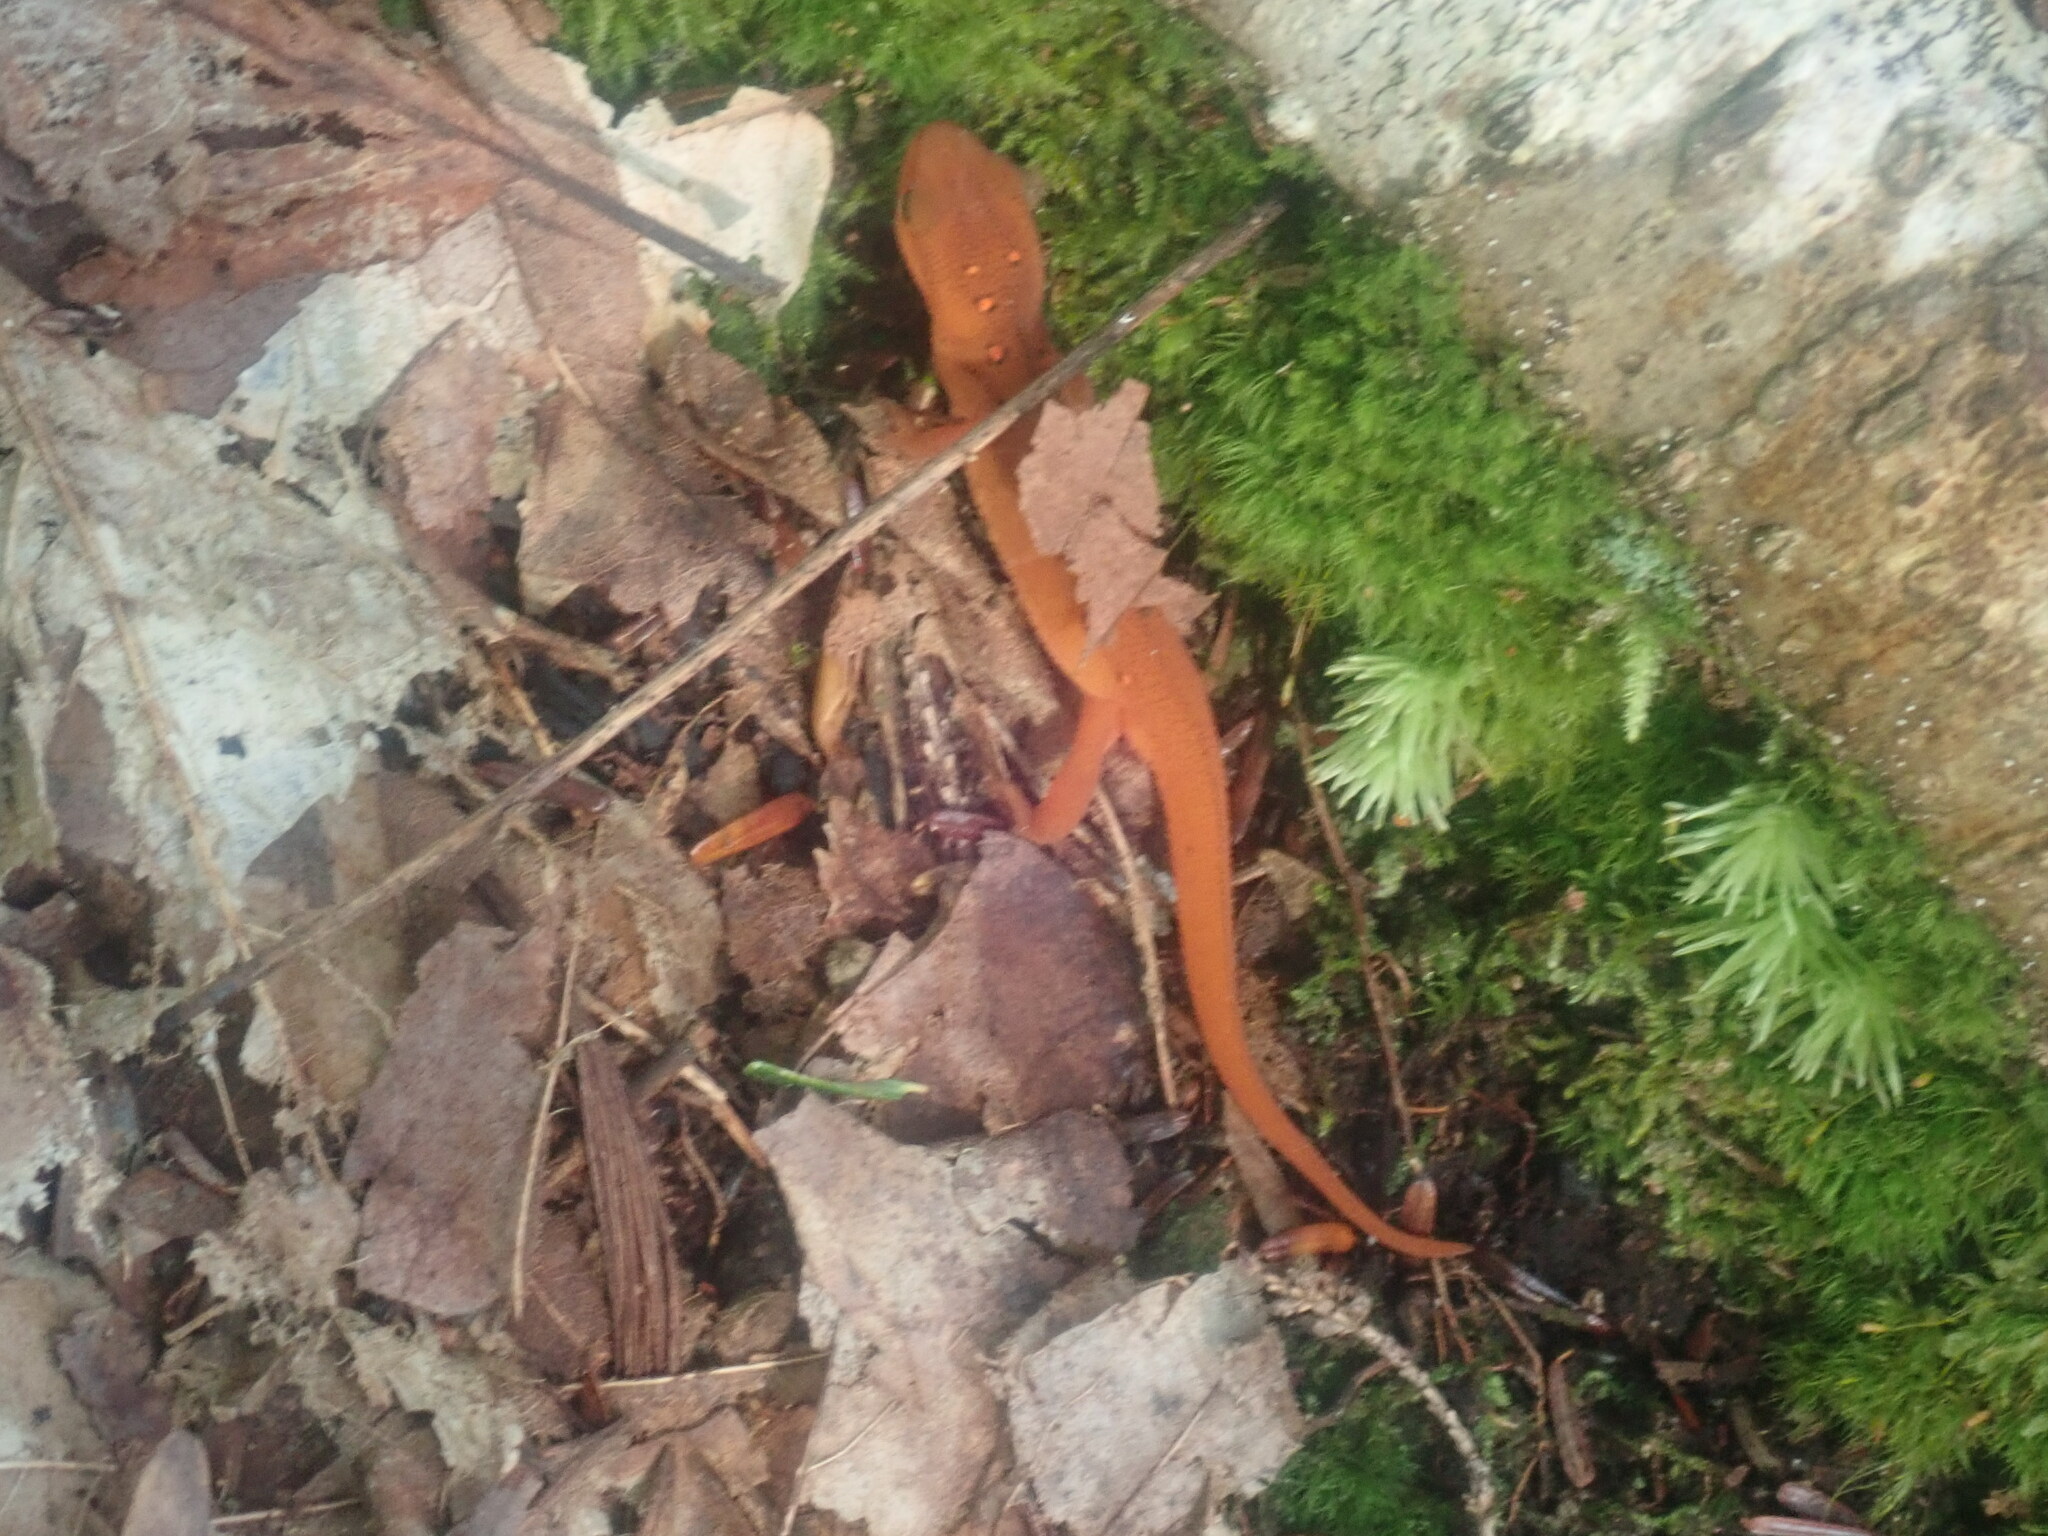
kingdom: Animalia
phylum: Chordata
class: Amphibia
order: Caudata
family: Salamandridae
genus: Notophthalmus
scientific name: Notophthalmus viridescens
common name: Eastern newt
